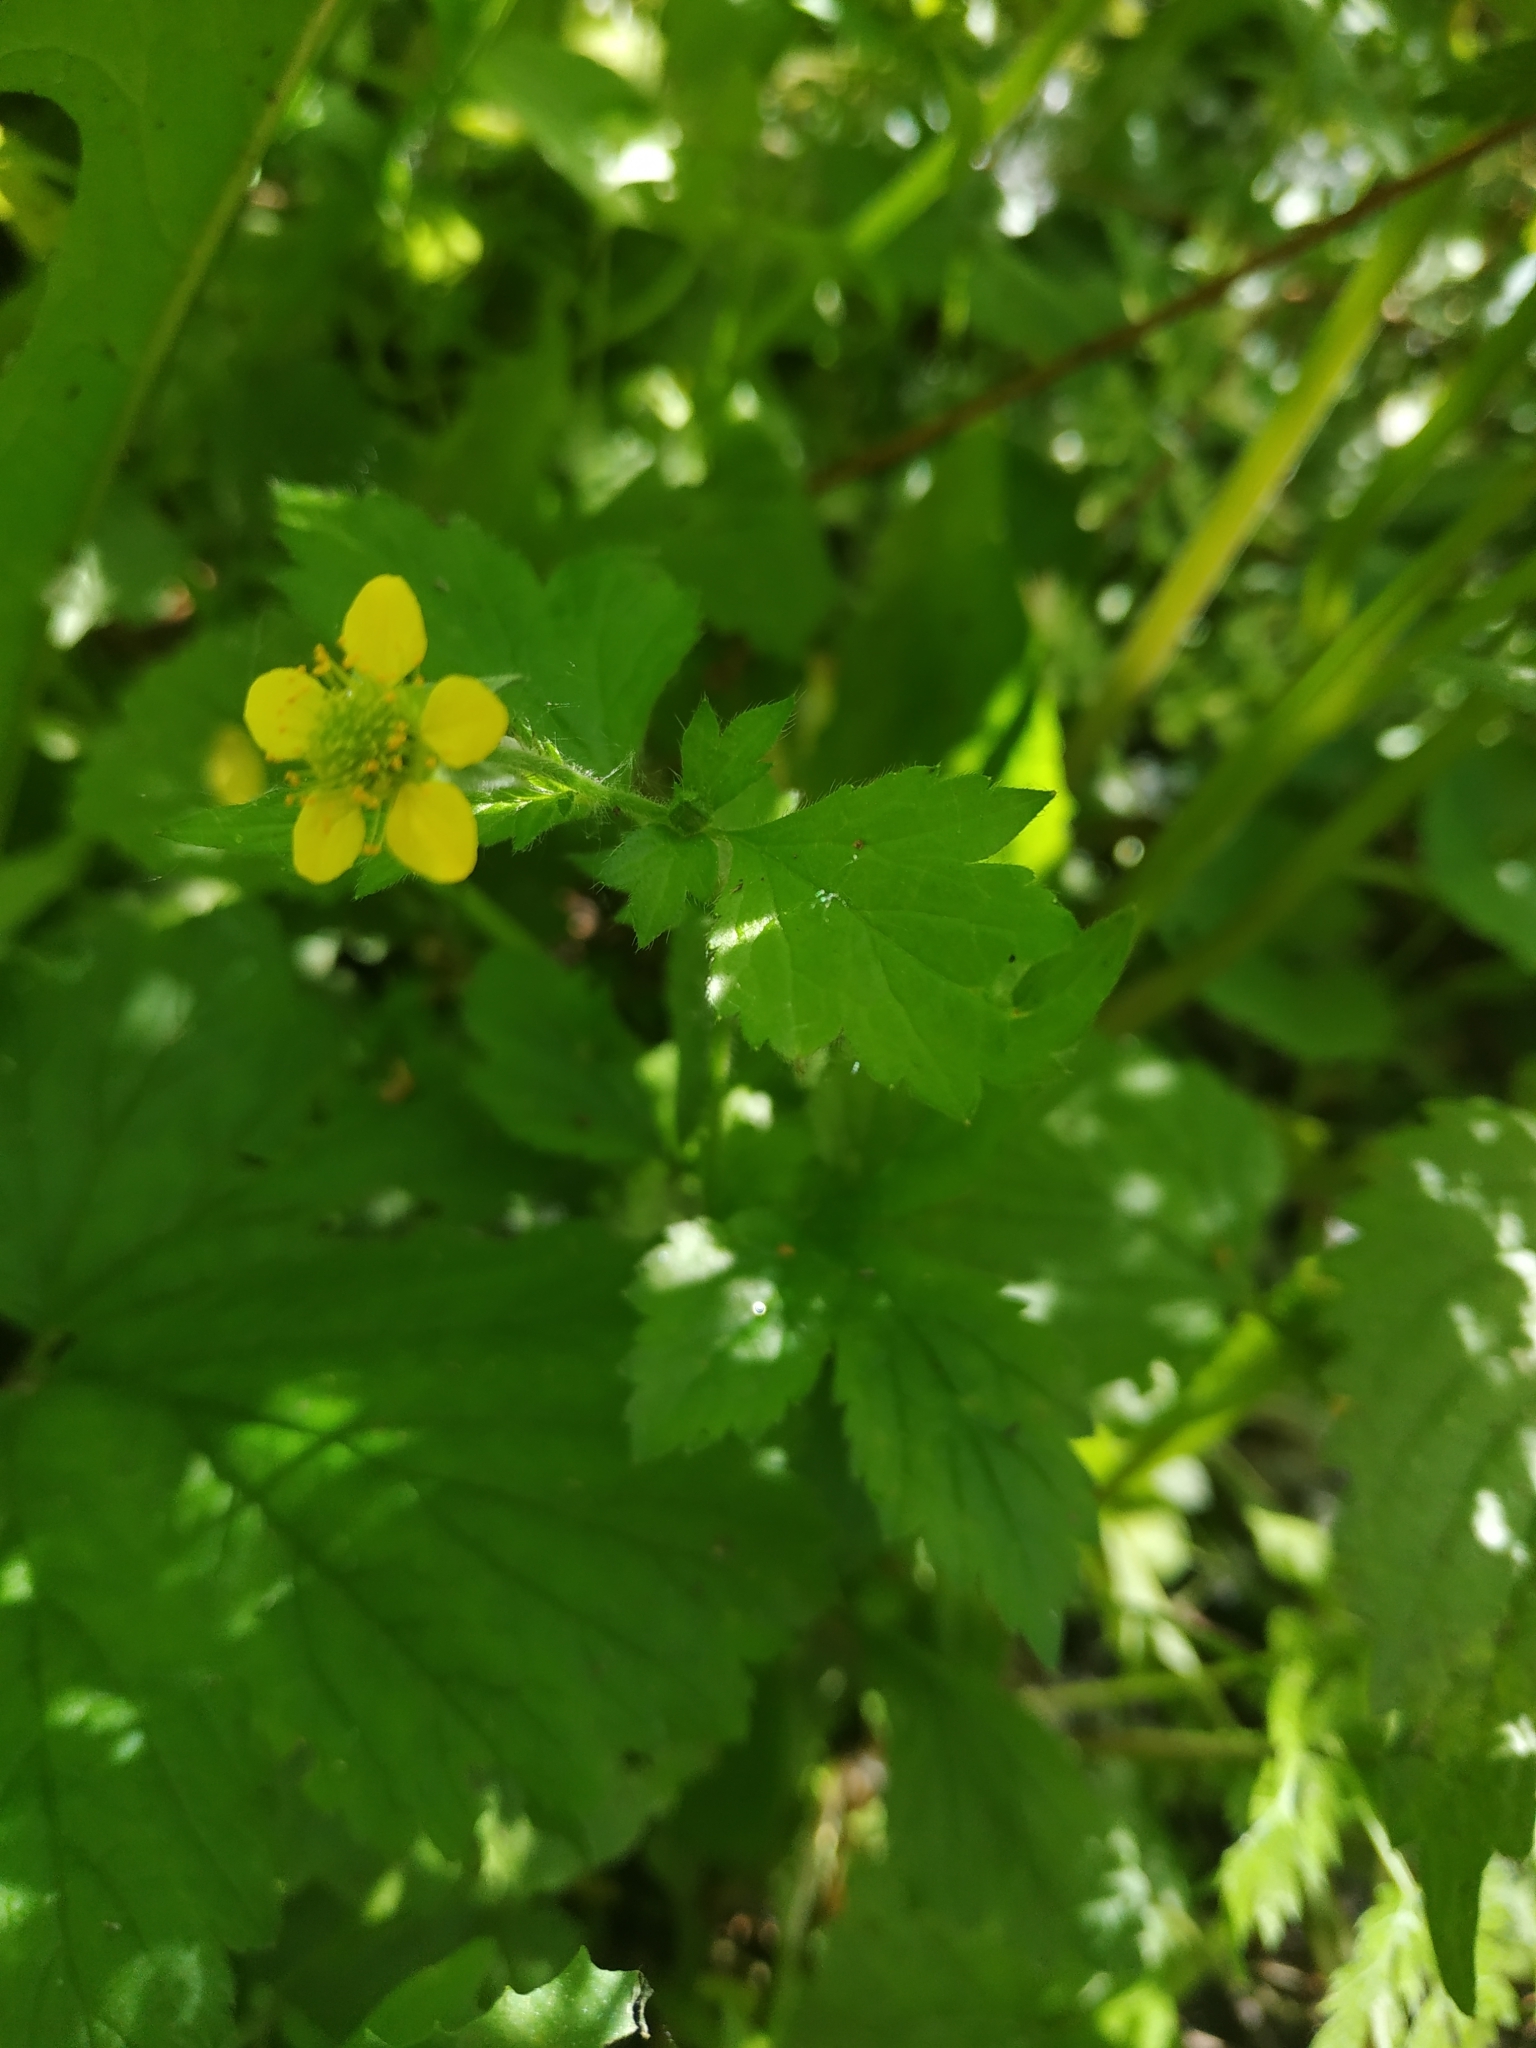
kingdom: Plantae
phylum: Tracheophyta
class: Magnoliopsida
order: Rosales
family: Rosaceae
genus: Geum
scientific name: Geum urbanum
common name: Wood avens
